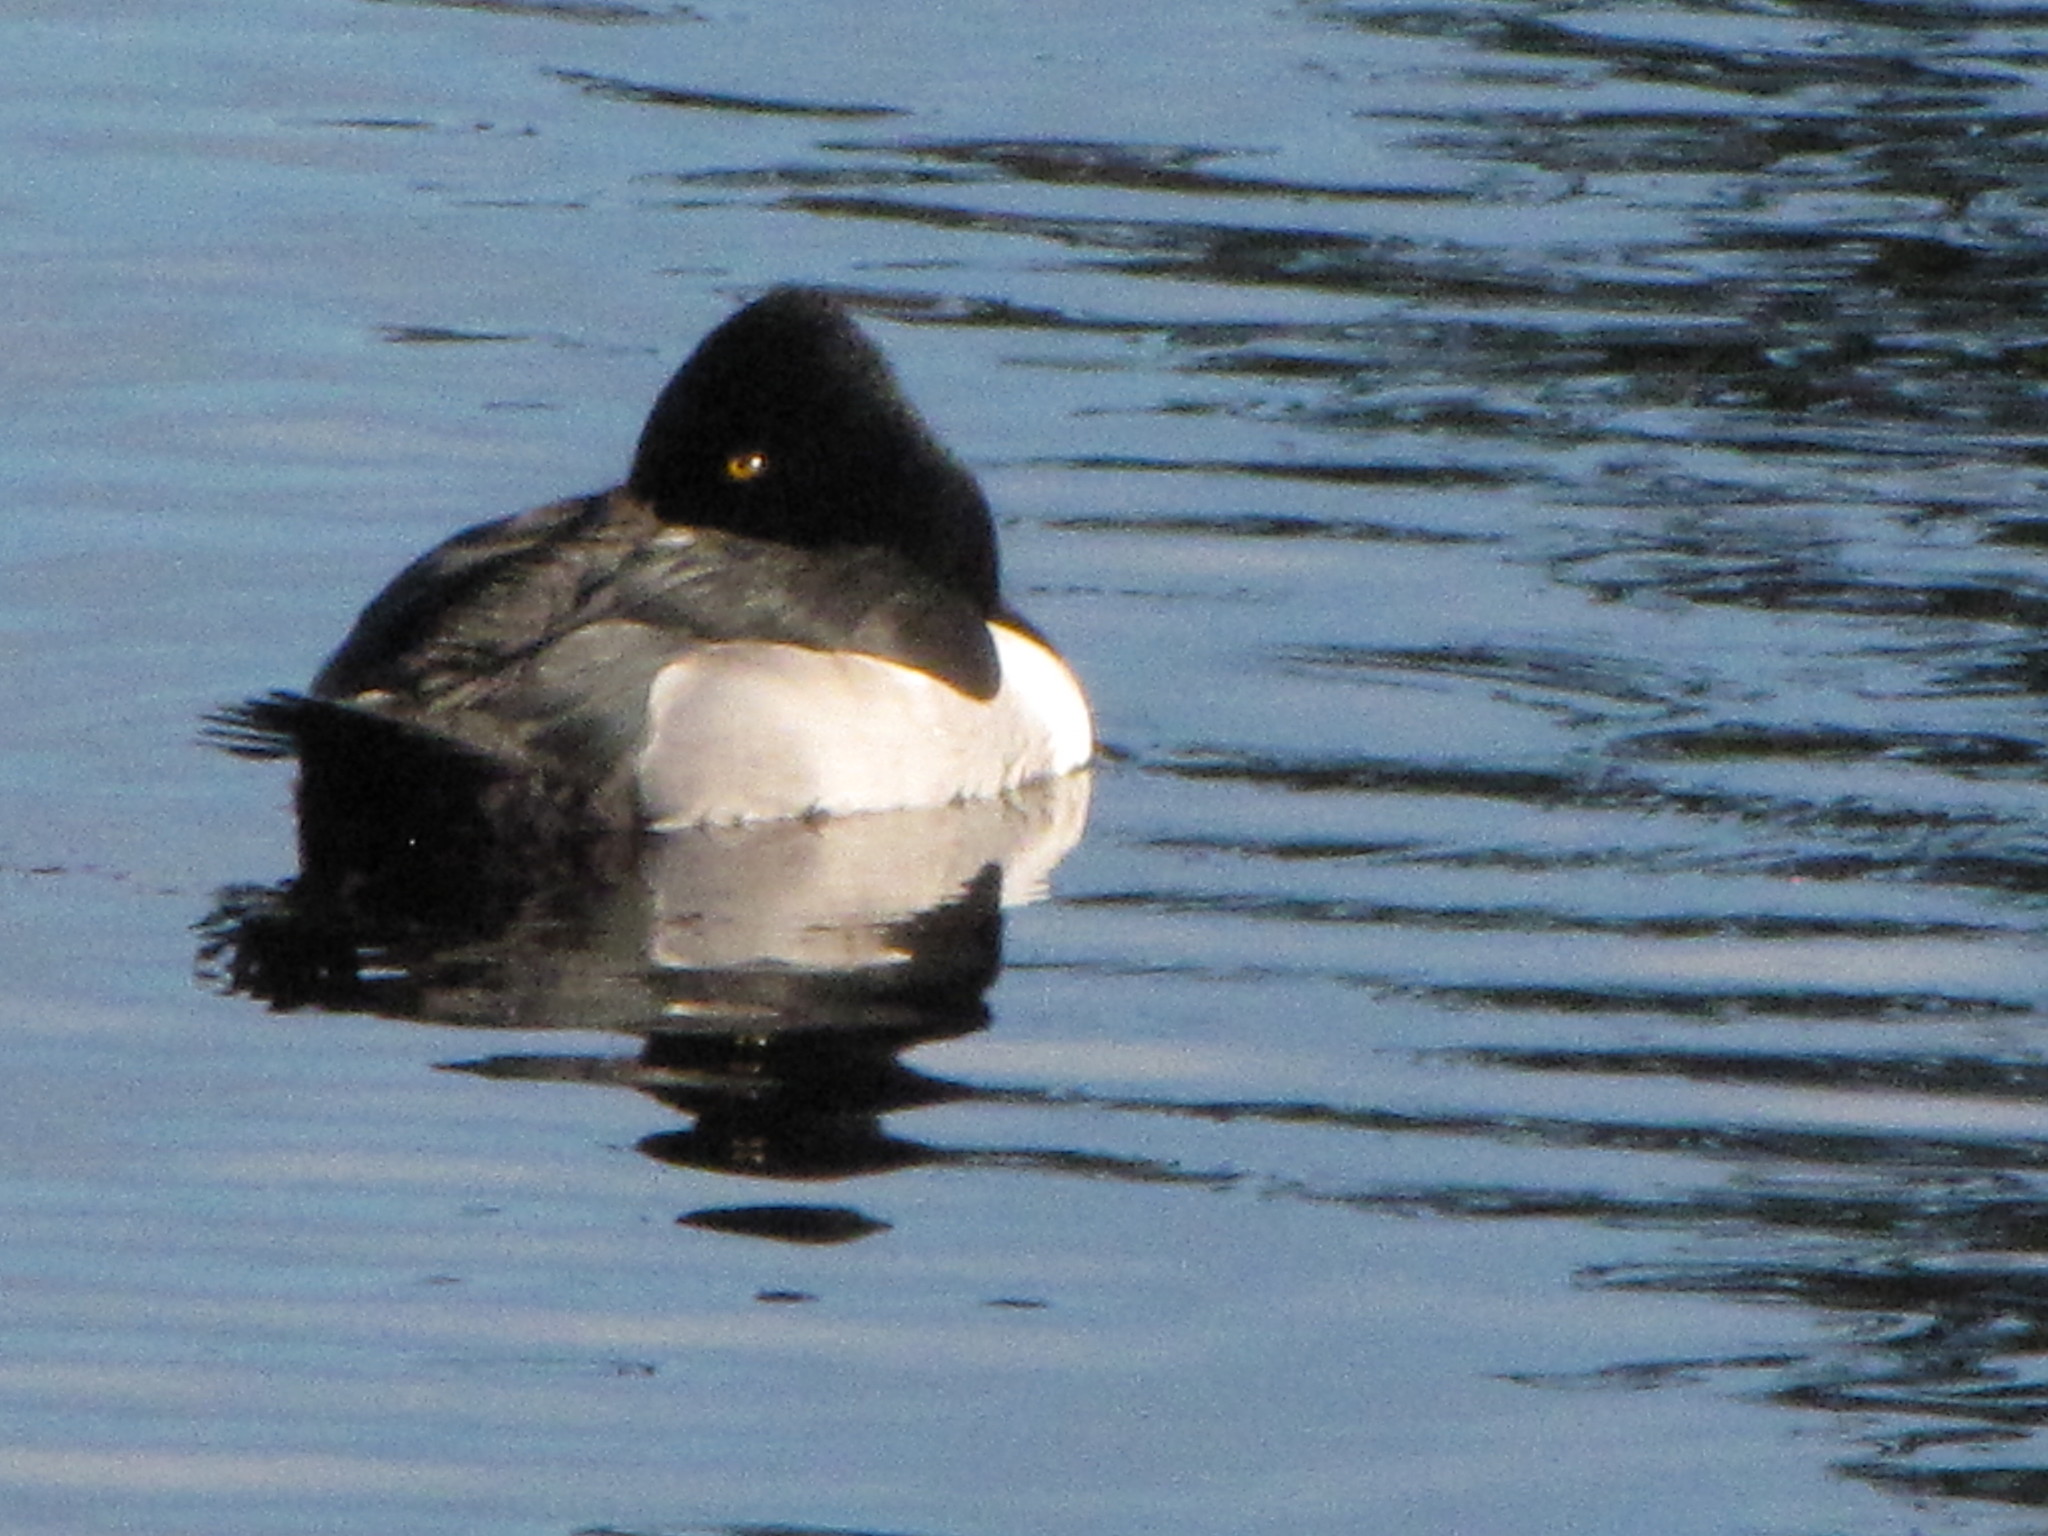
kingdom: Animalia
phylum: Chordata
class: Aves
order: Anseriformes
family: Anatidae
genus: Aythya
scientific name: Aythya collaris
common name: Ring-necked duck
